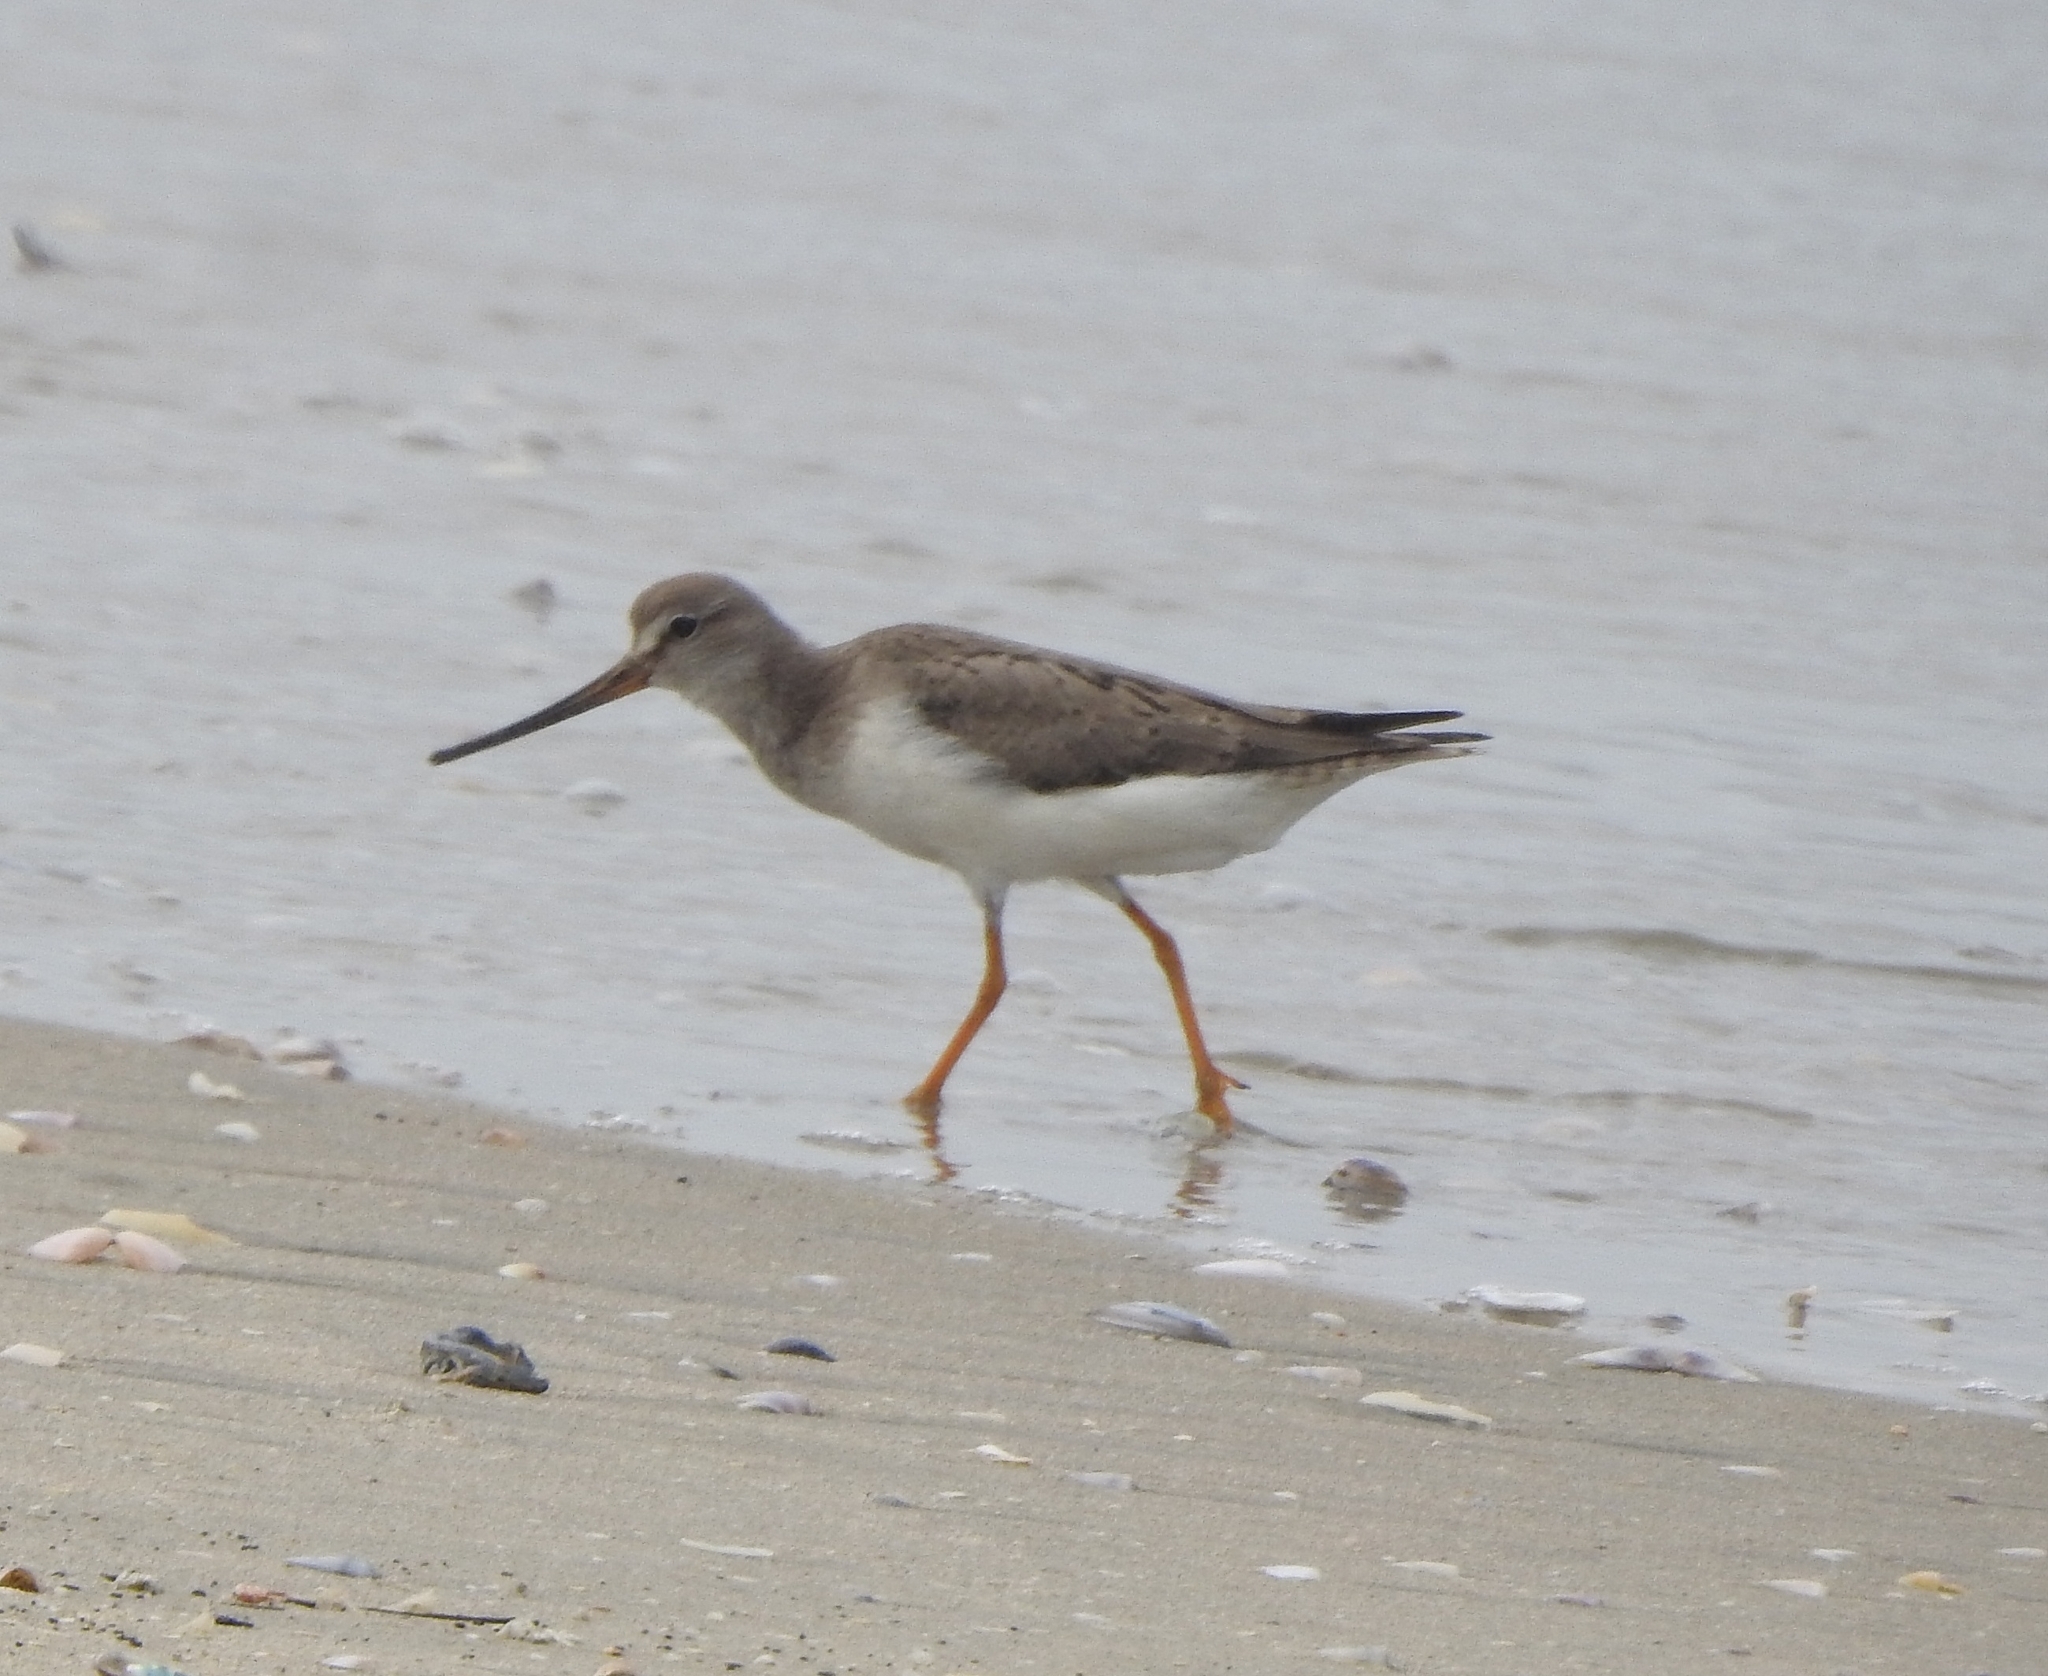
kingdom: Animalia
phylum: Chordata
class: Aves
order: Charadriiformes
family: Scolopacidae
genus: Xenus
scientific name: Xenus cinereus
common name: Terek sandpiper
